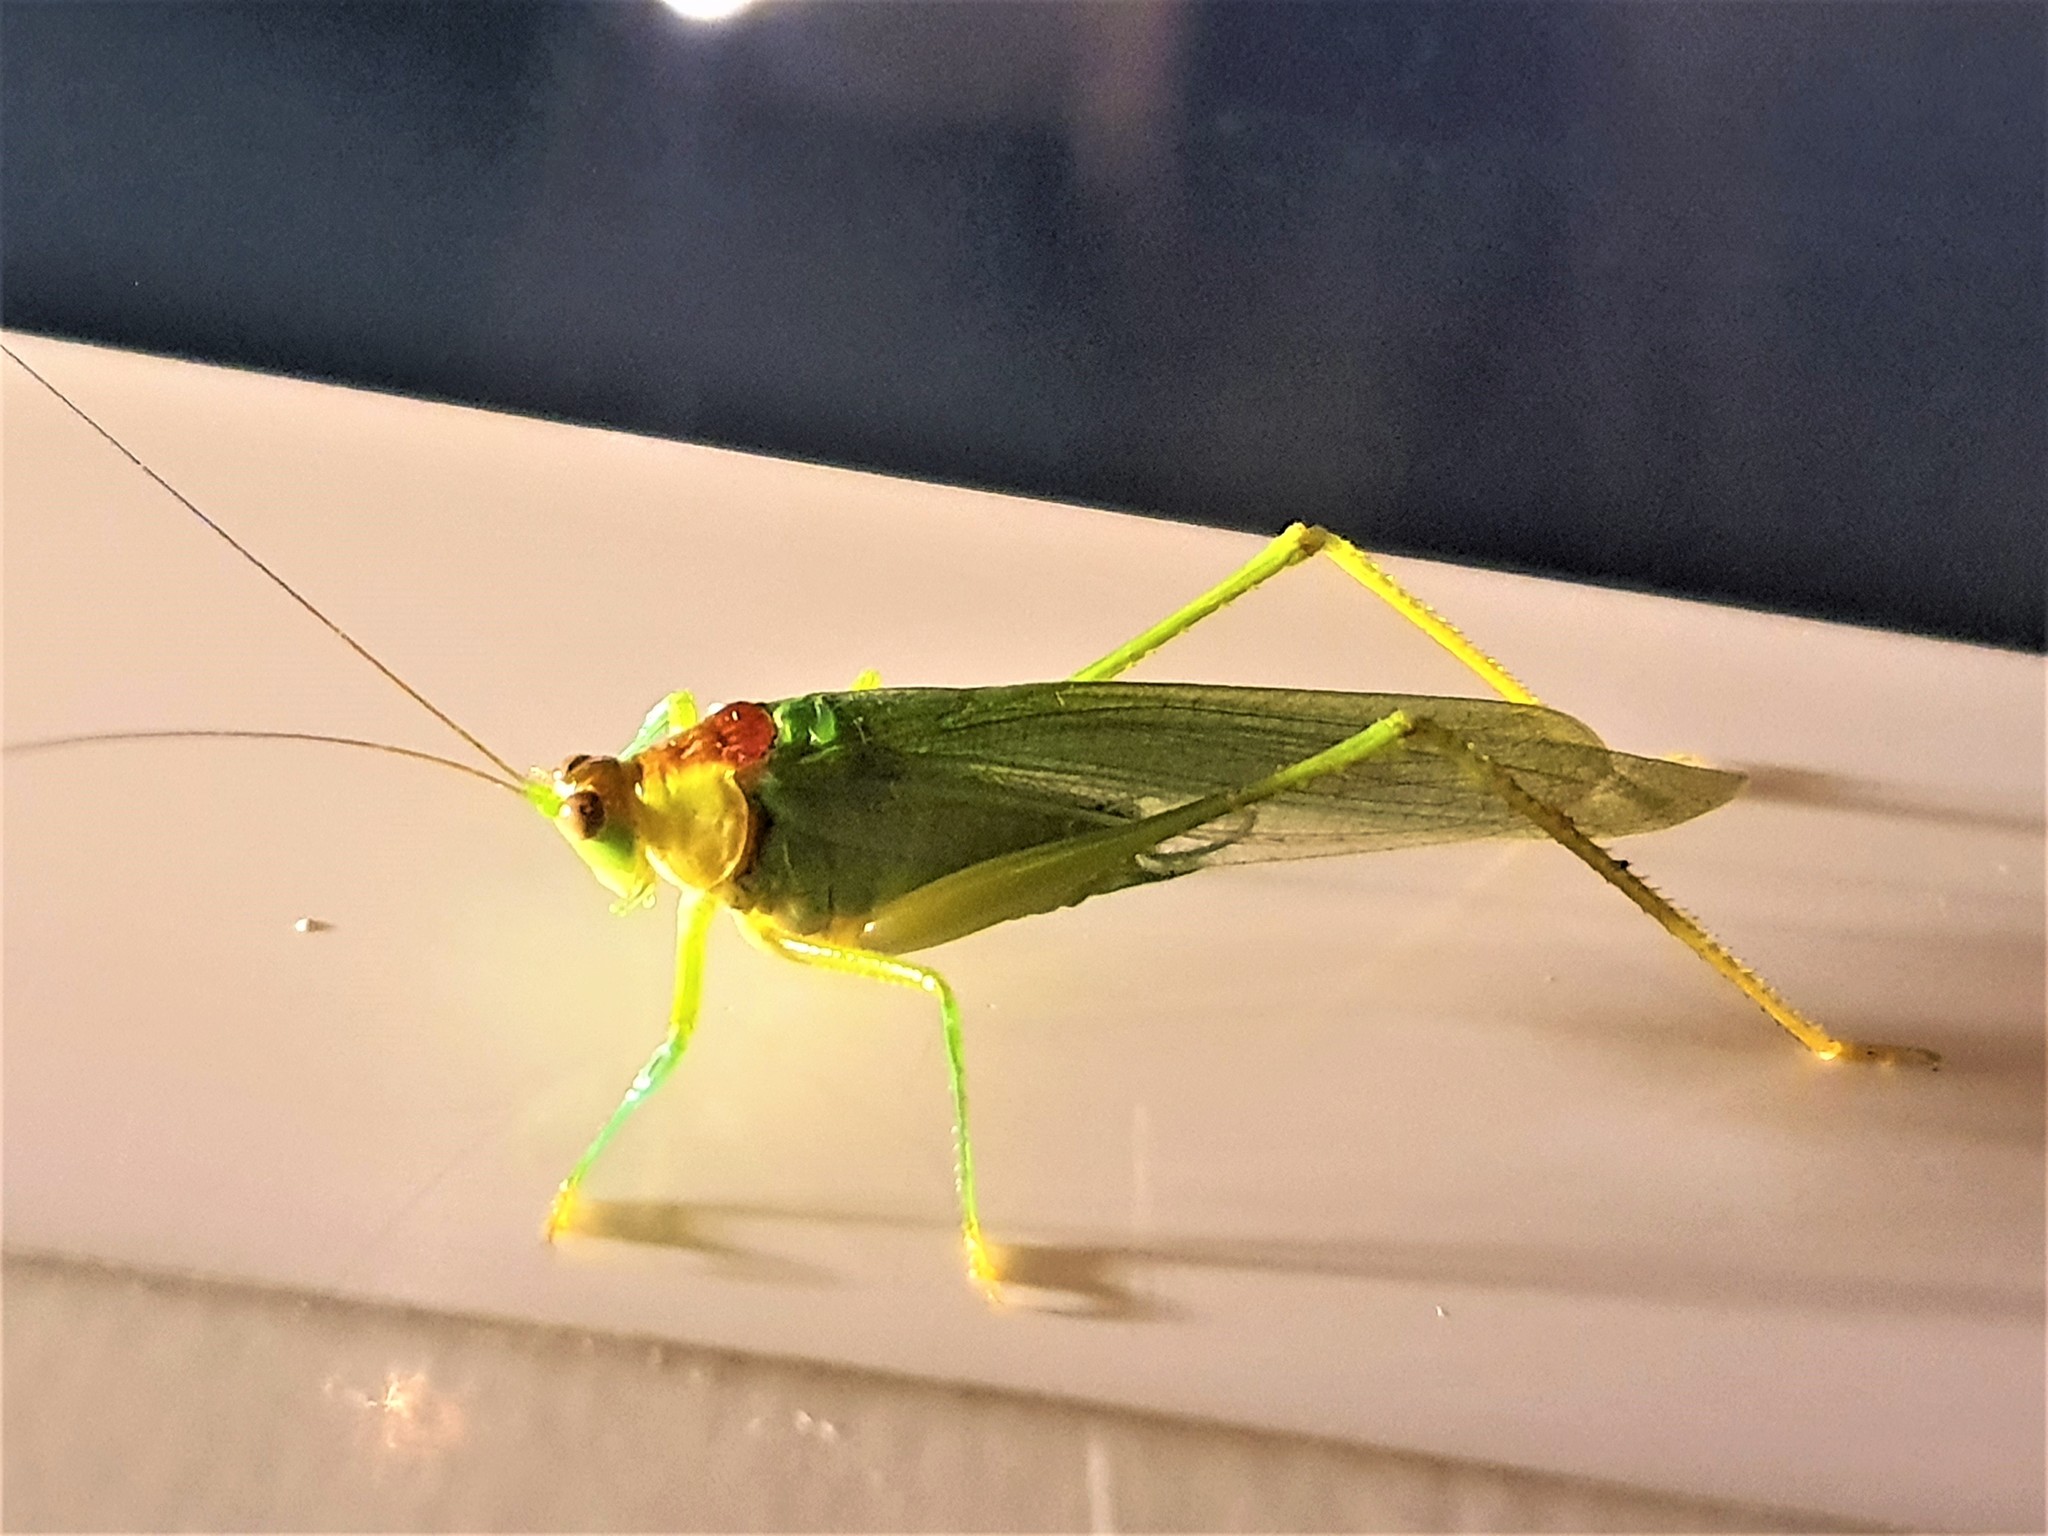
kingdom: Animalia
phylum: Arthropoda
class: Insecta
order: Orthoptera
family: Tettigoniidae
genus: Euceraia
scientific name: Euceraia atryx
